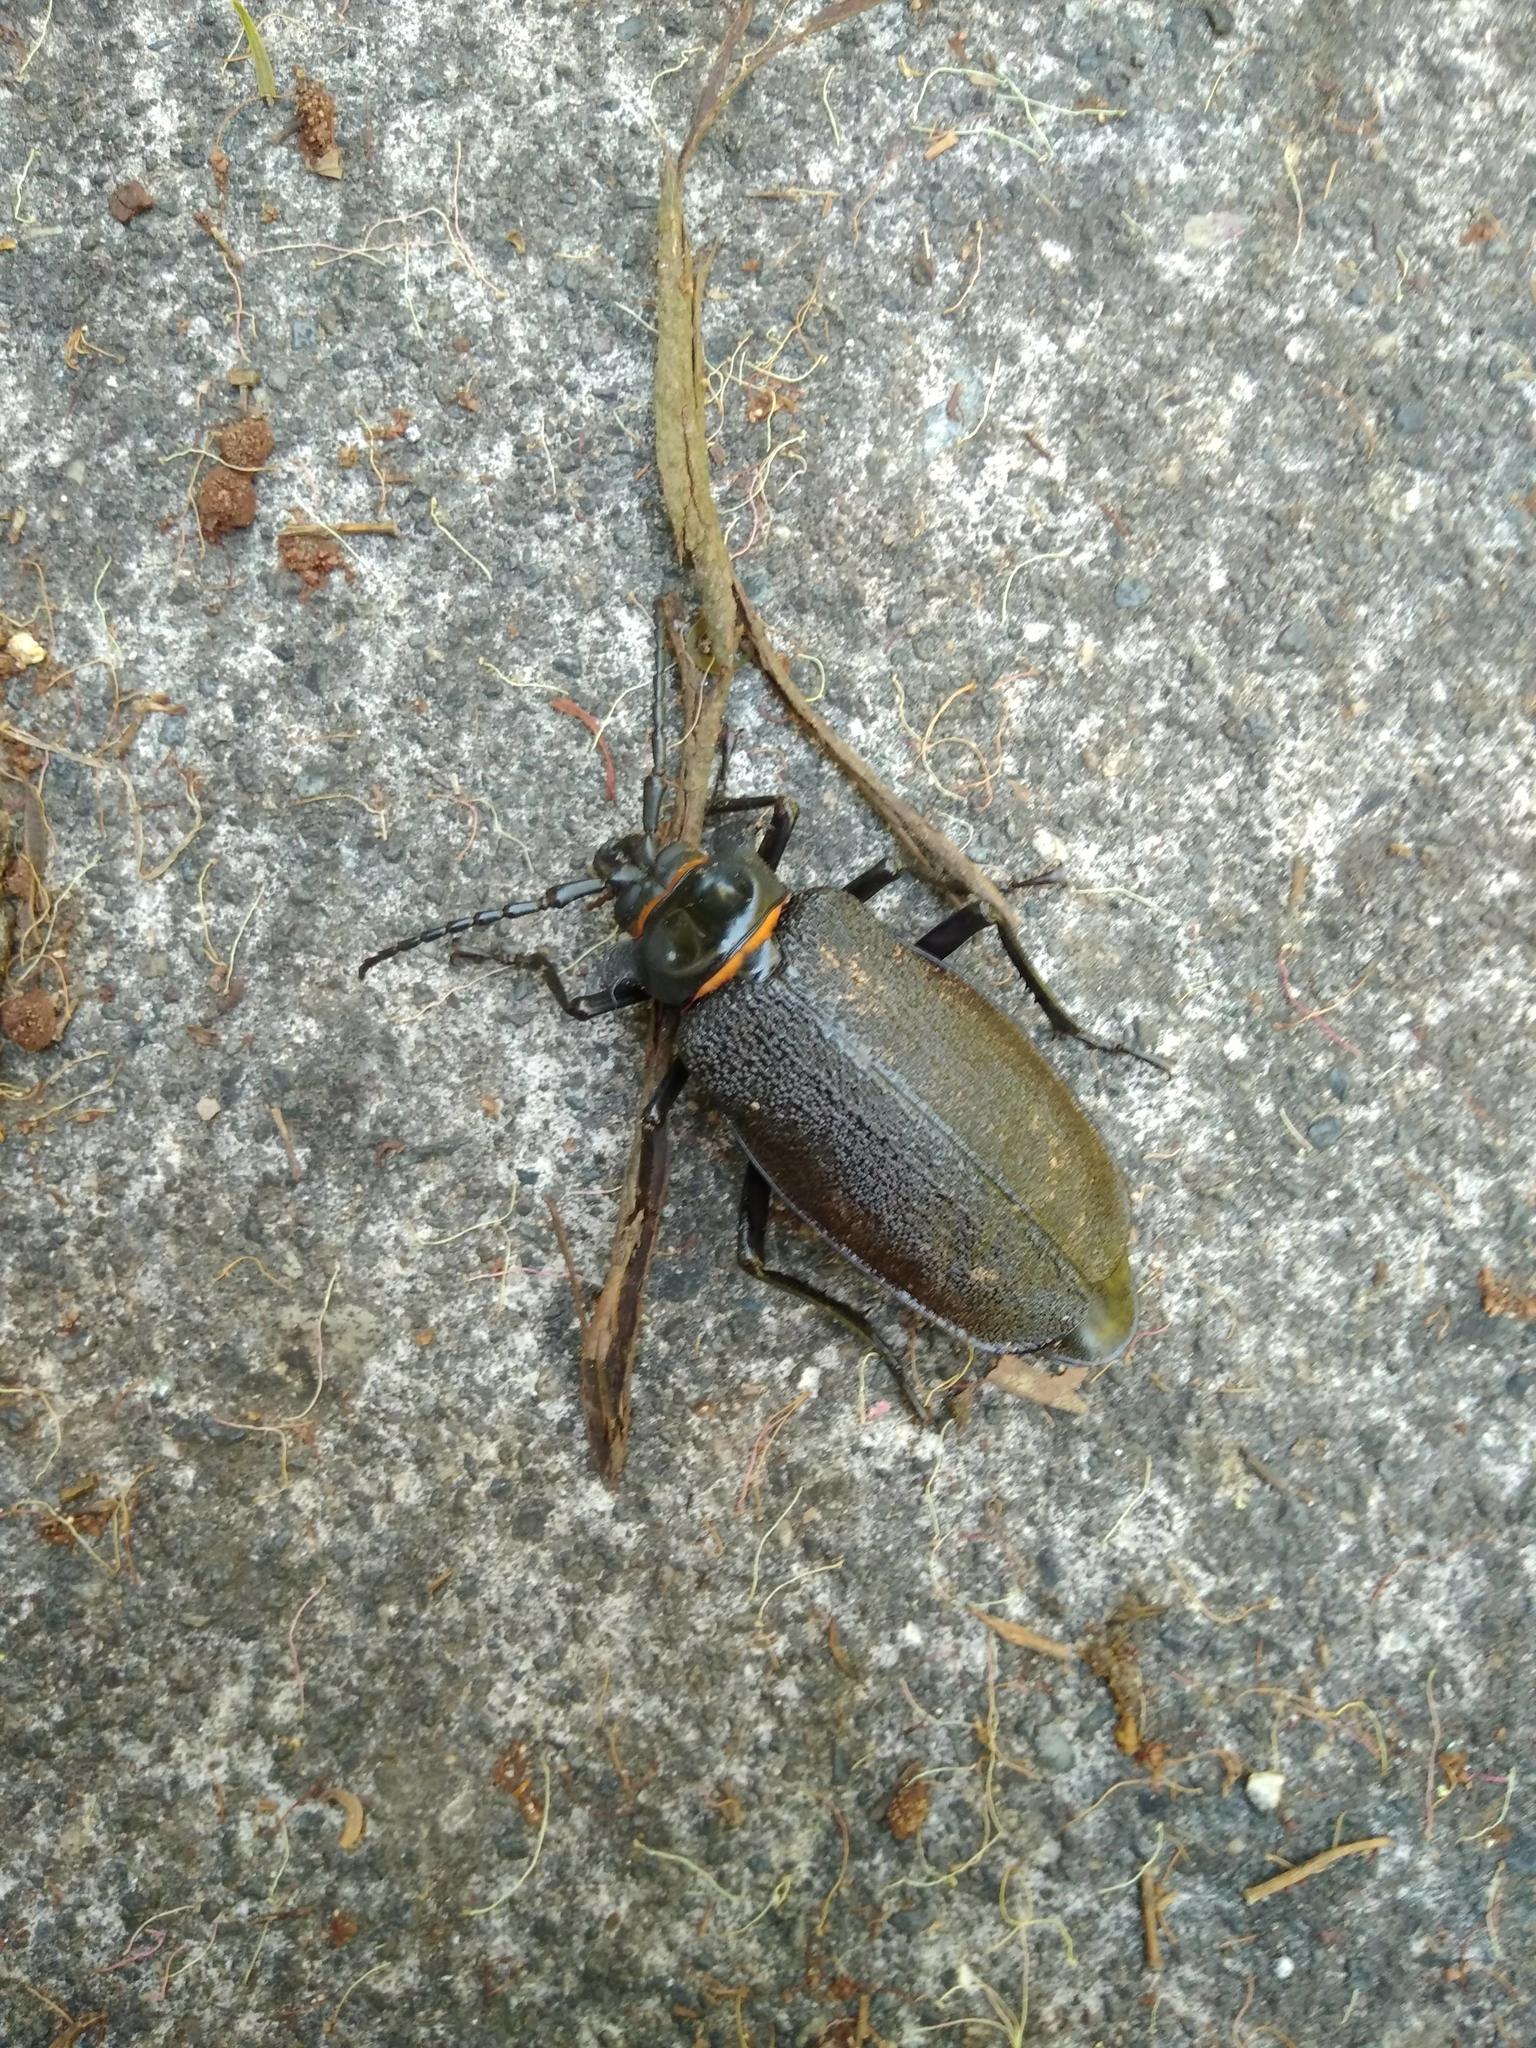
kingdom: Animalia
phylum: Arthropoda
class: Insecta
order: Coleoptera
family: Cerambycidae
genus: Acanthinodera
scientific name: Acanthinodera cumingii
